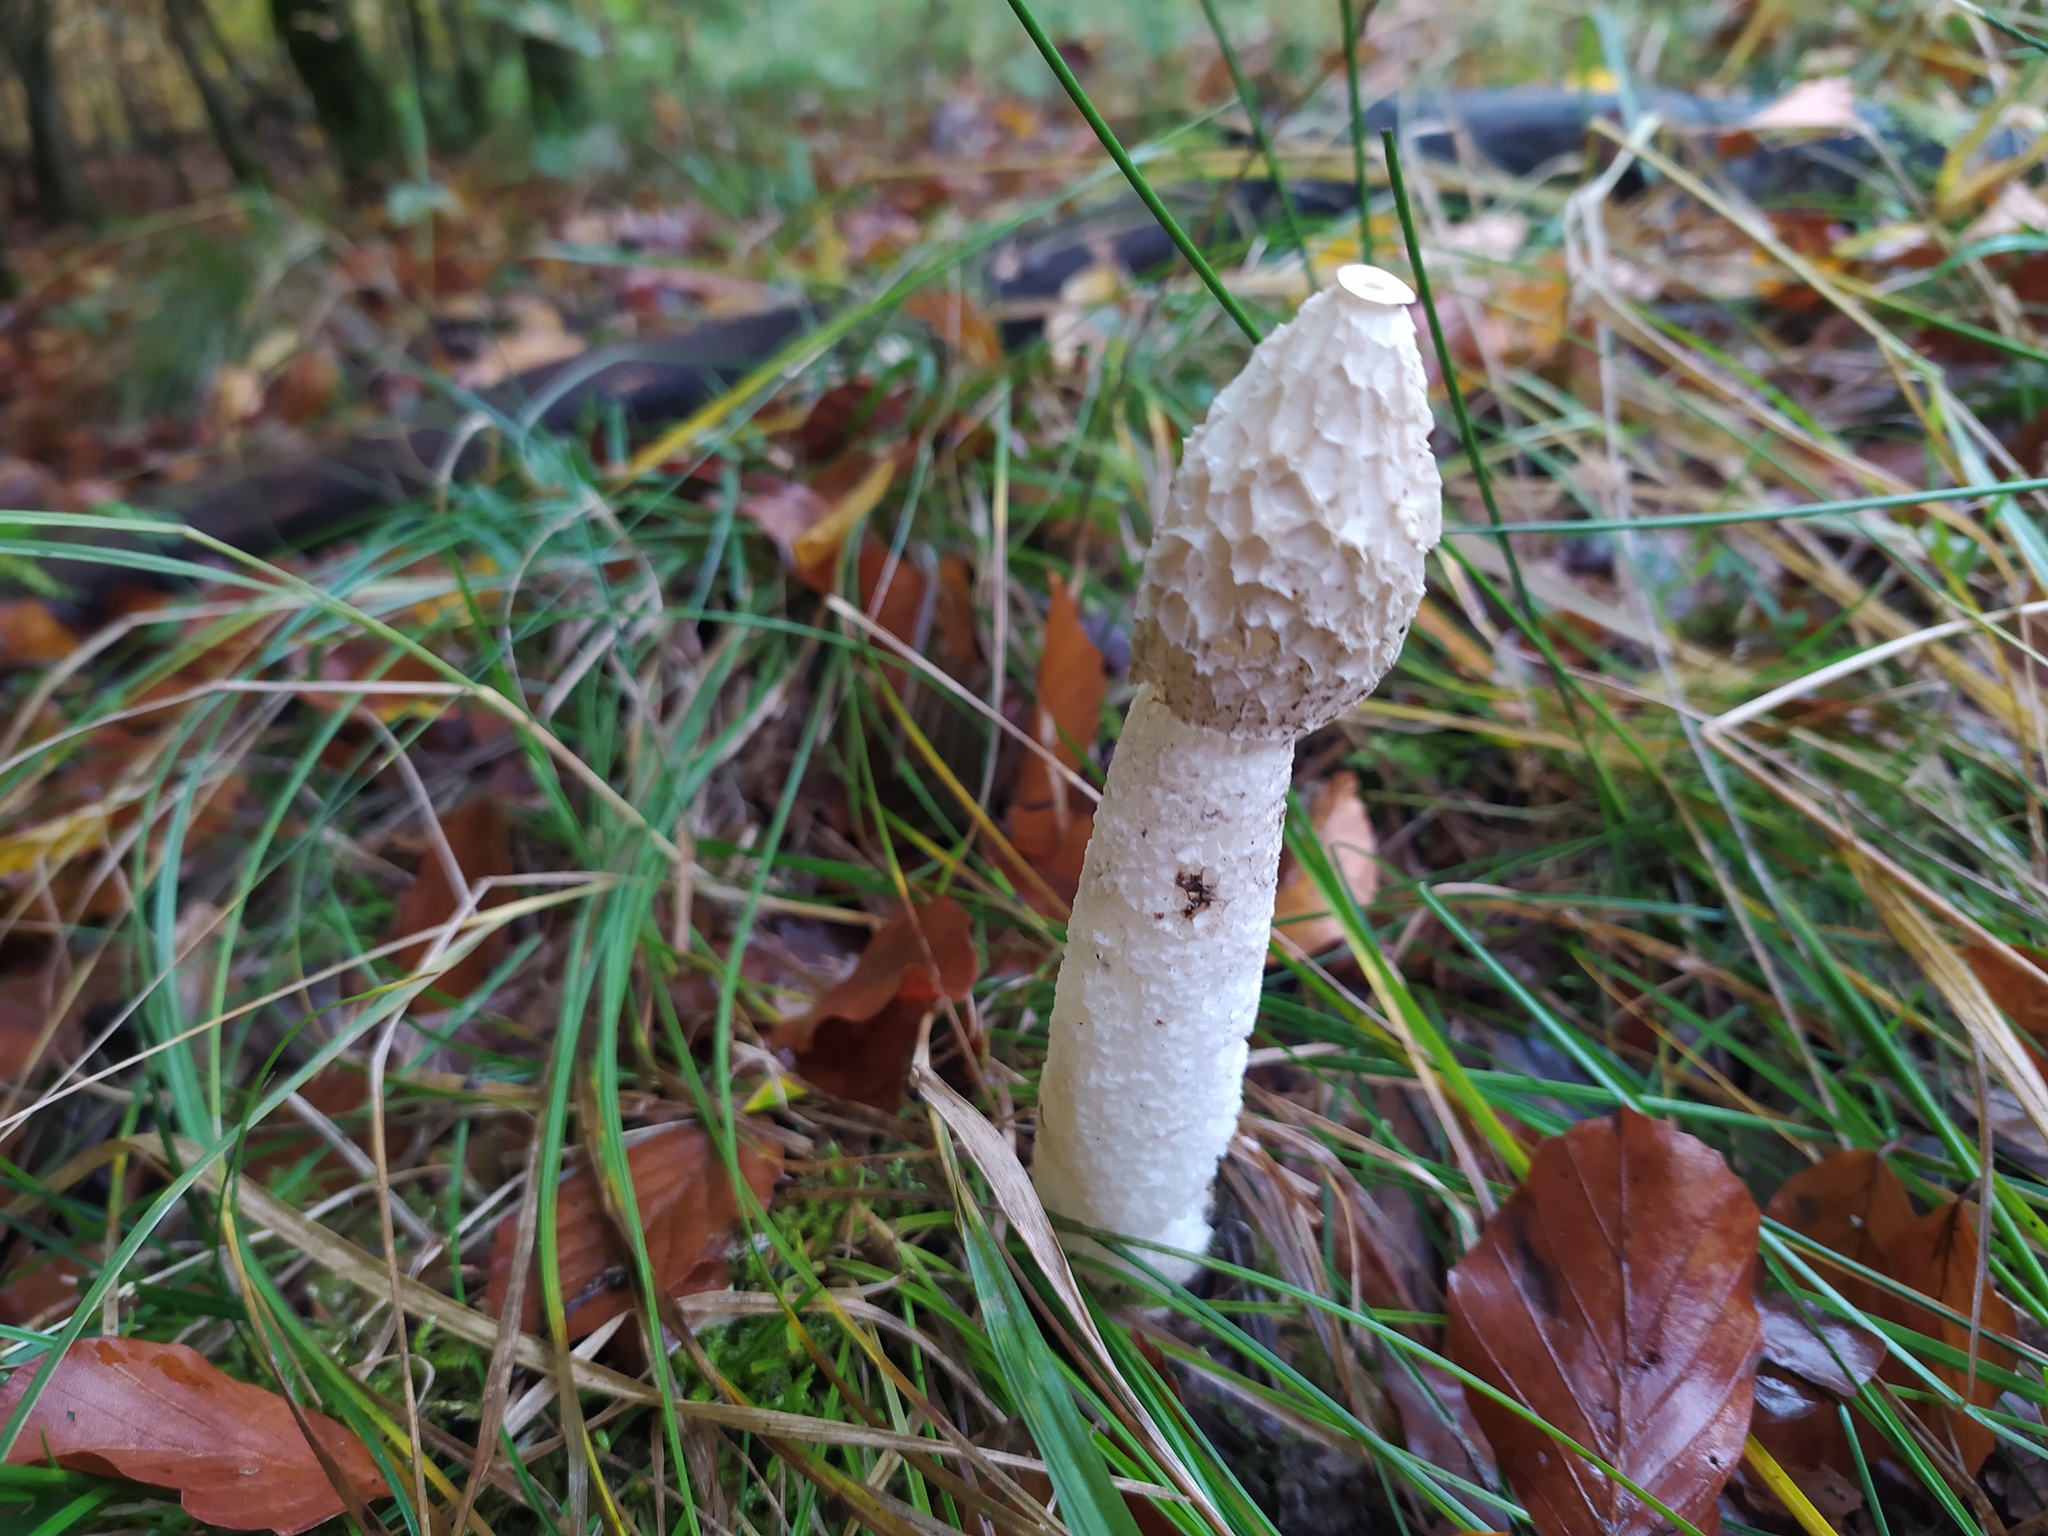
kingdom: Fungi
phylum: Basidiomycota
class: Agaricomycetes
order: Phallales
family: Phallaceae
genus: Phallus
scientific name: Phallus impudicus
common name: Common stinkhorn
